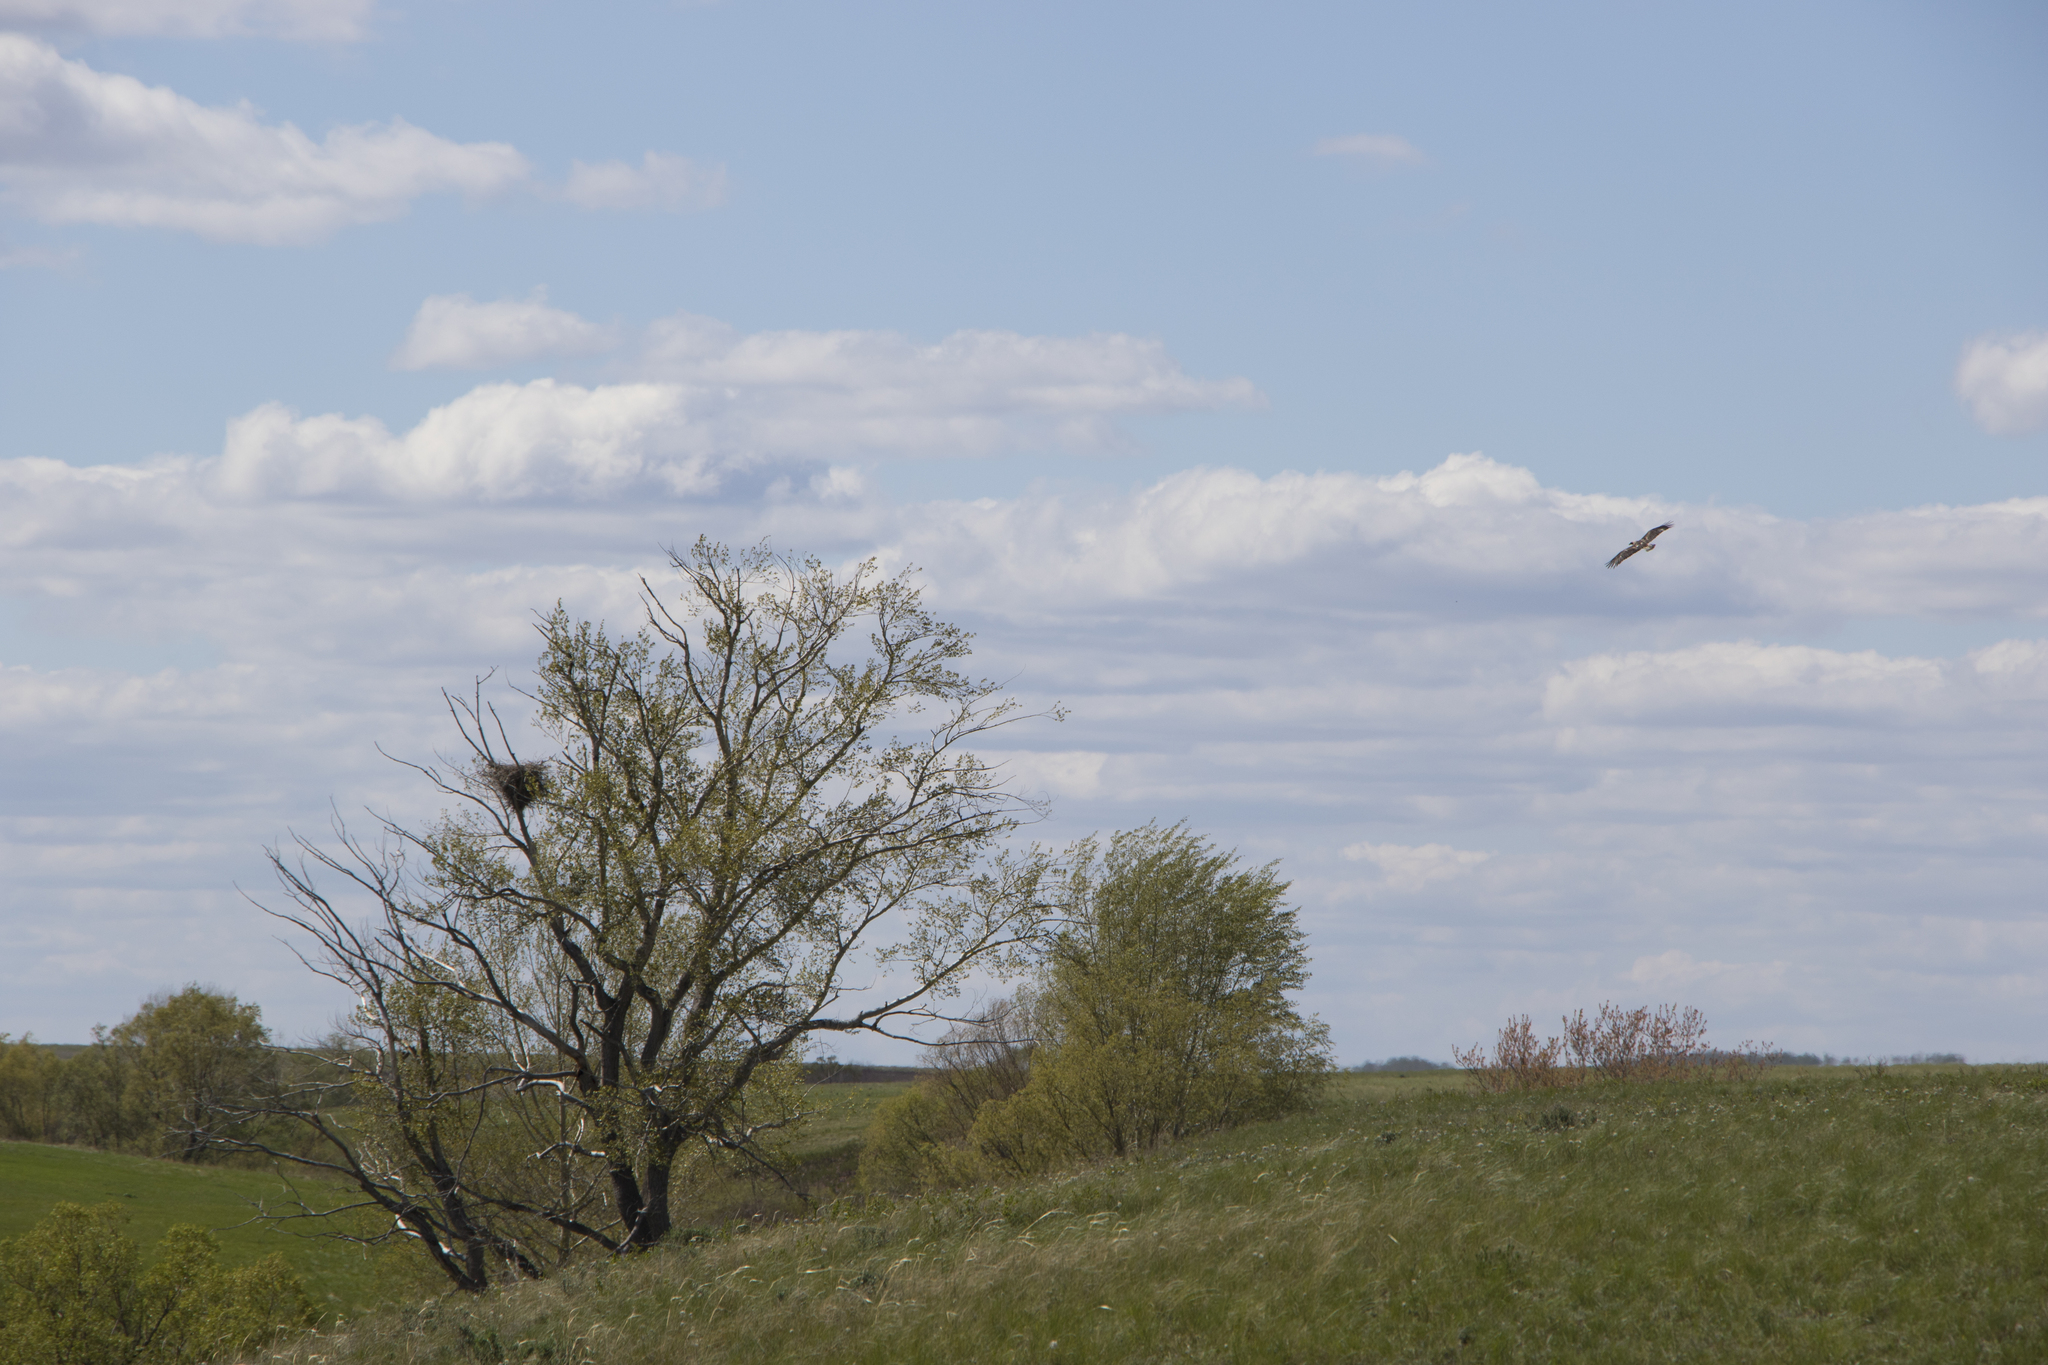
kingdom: Animalia
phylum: Chordata
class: Aves
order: Accipitriformes
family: Accipitridae
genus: Aquila
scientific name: Aquila heliaca
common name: Eastern imperial eagle
